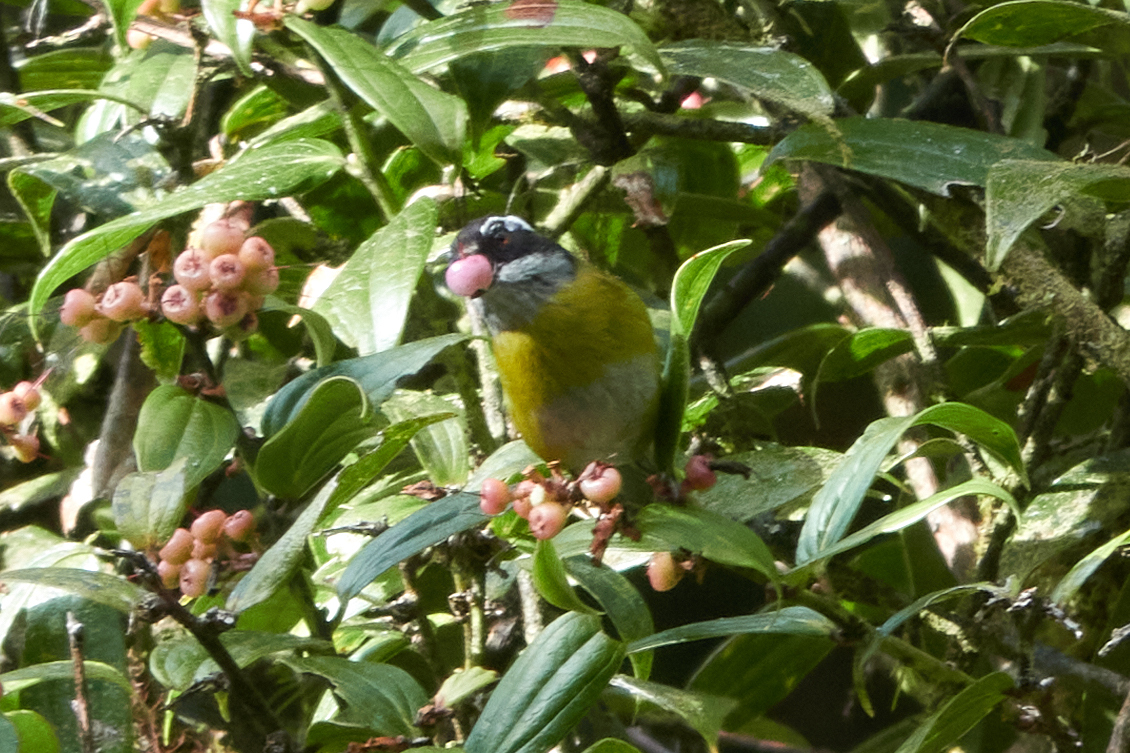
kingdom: Animalia
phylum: Chordata
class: Aves
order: Passeriformes
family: Passerellidae
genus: Chlorospingus
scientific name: Chlorospingus pileatus
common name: Sooty-capped bush-tanager
